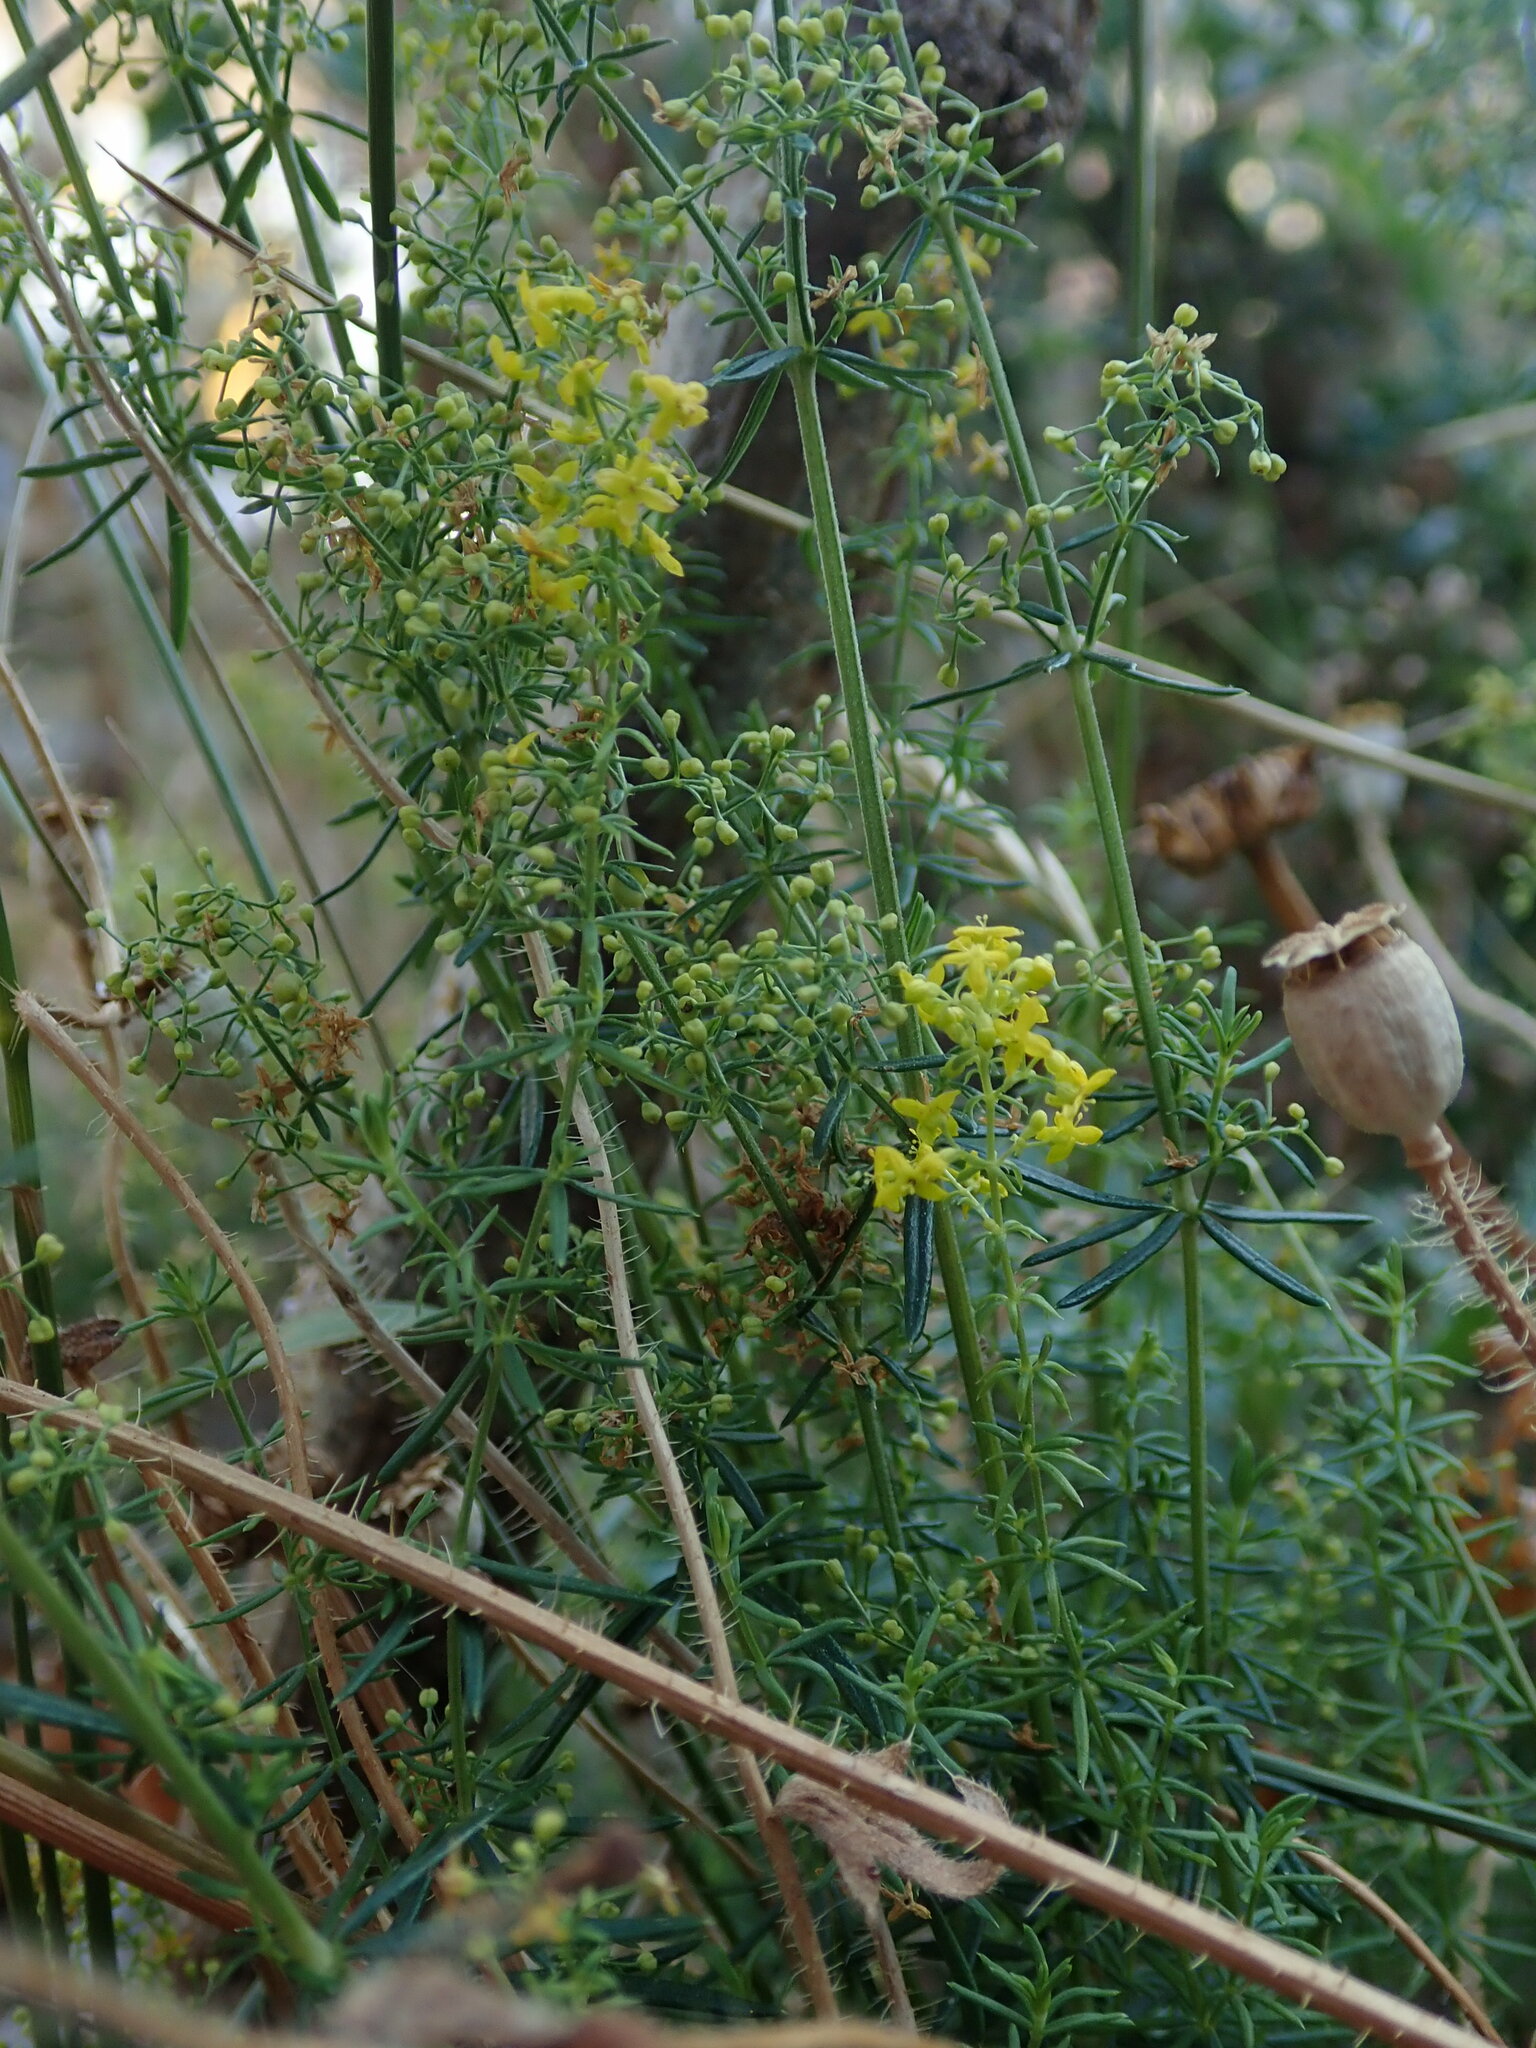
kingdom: Plantae
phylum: Tracheophyta
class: Magnoliopsida
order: Gentianales
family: Rubiaceae
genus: Galium
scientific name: Galium verum
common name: Lady's bedstraw
